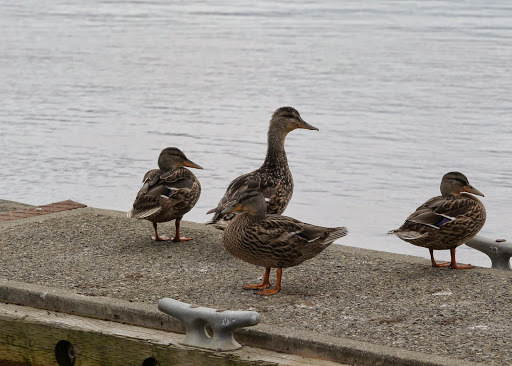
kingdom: Animalia
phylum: Chordata
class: Aves
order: Anseriformes
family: Anatidae
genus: Anas
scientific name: Anas platyrhynchos
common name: Mallard
